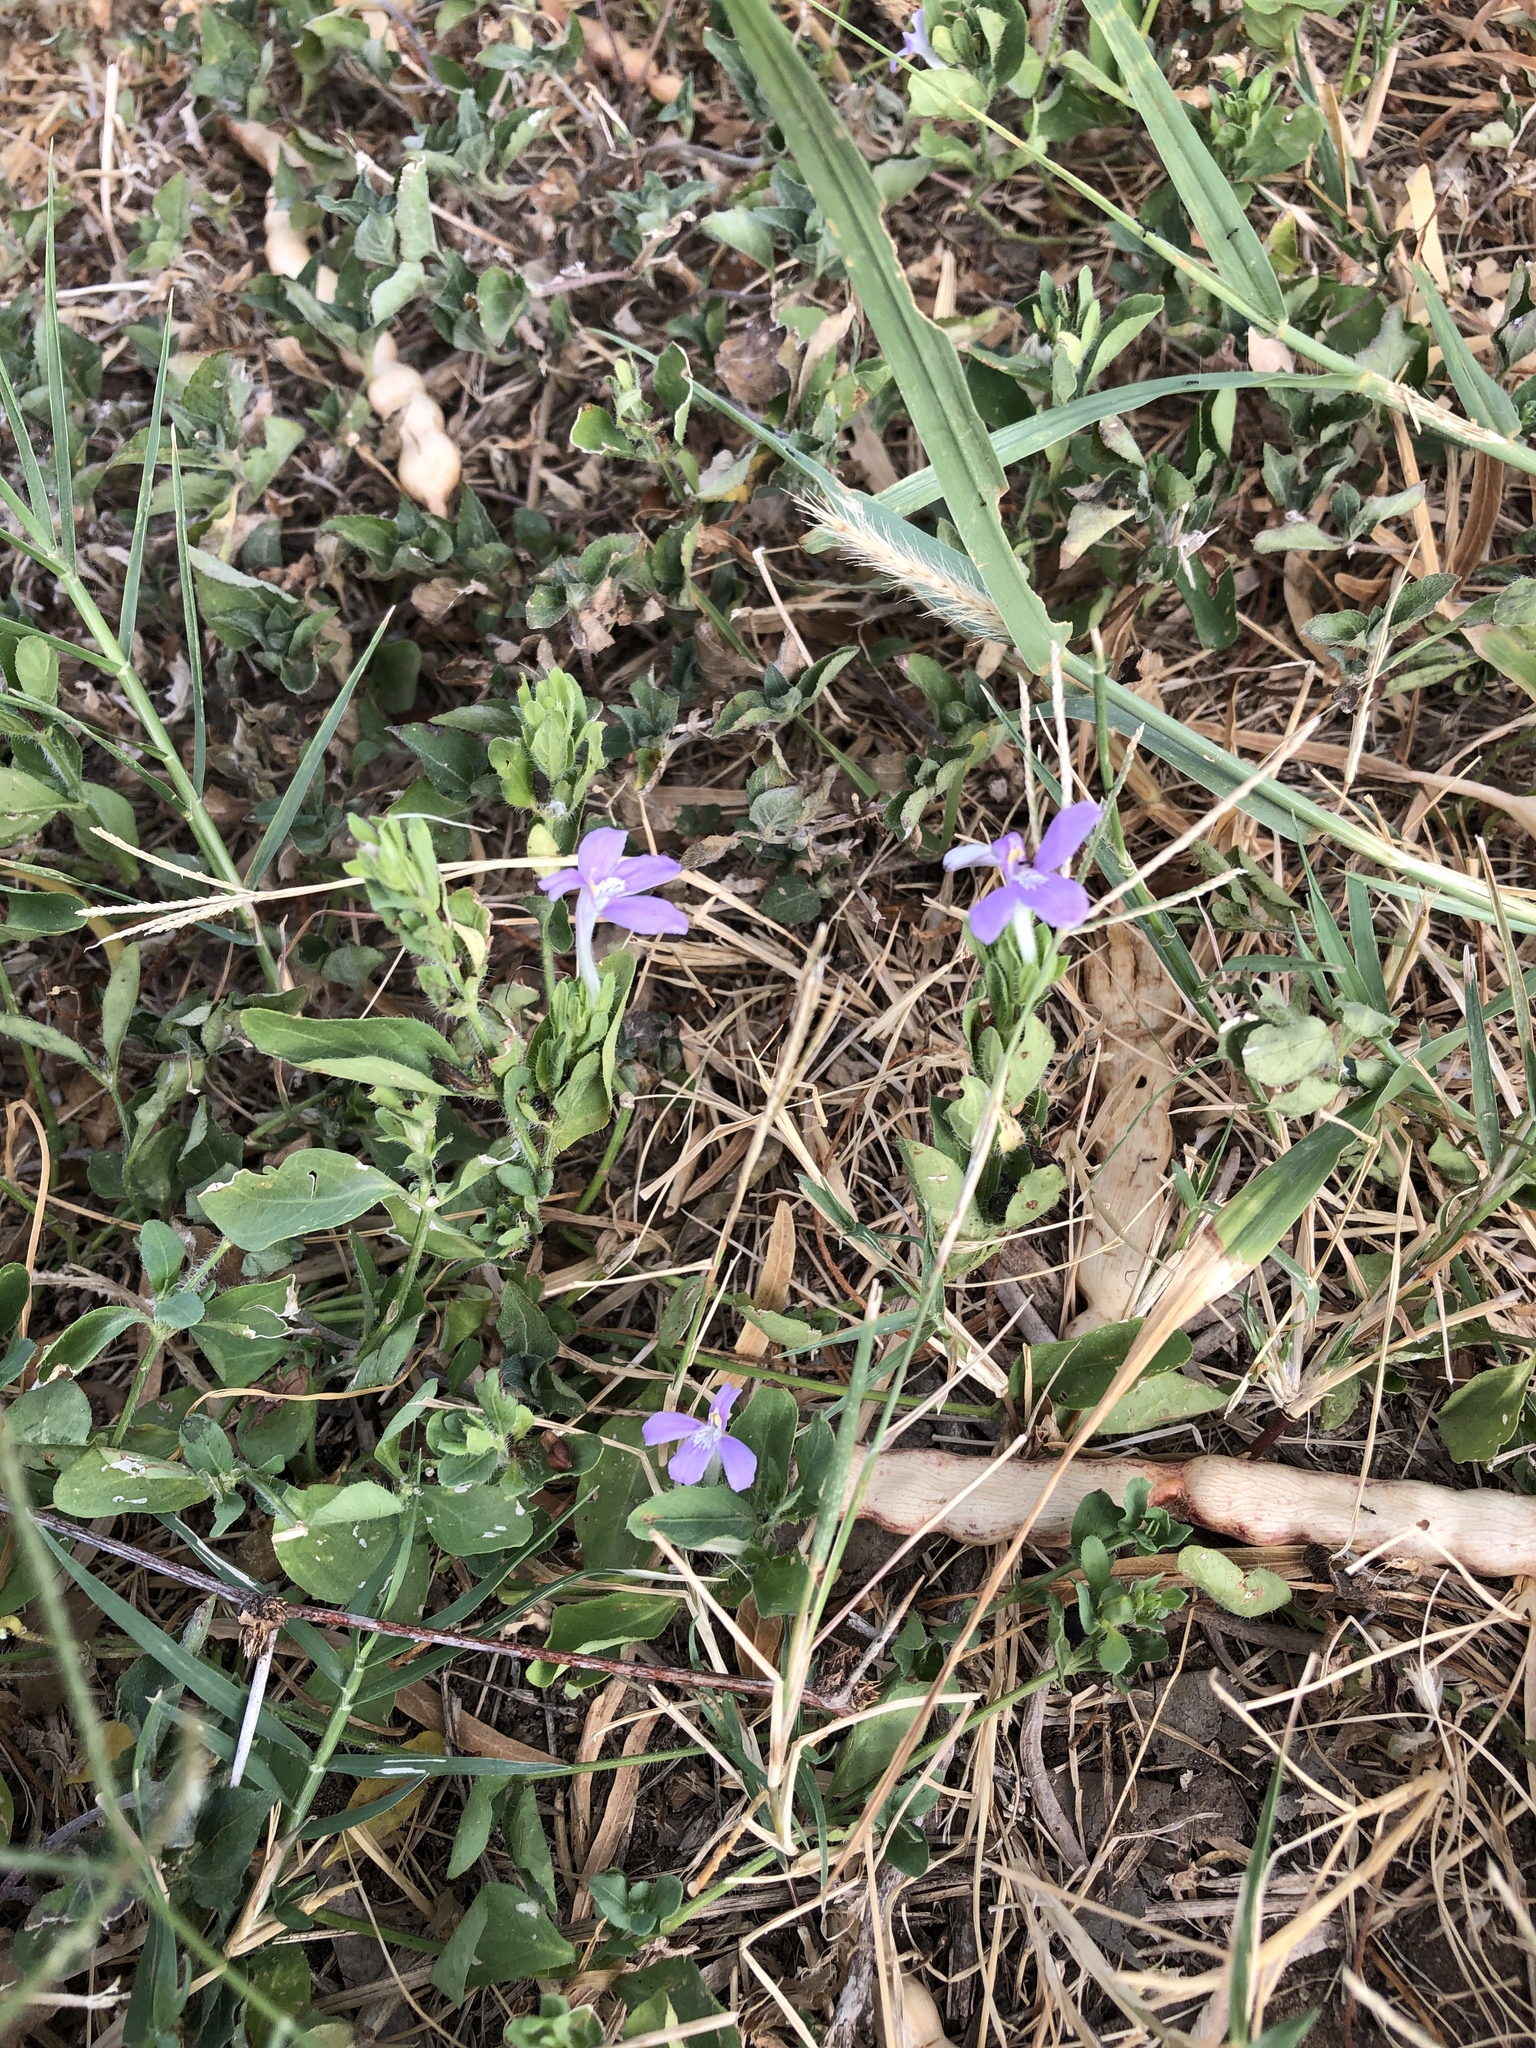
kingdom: Plantae
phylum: Tracheophyta
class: Magnoliopsida
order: Lamiales
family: Acanthaceae
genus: Justicia
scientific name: Justicia pilosella
